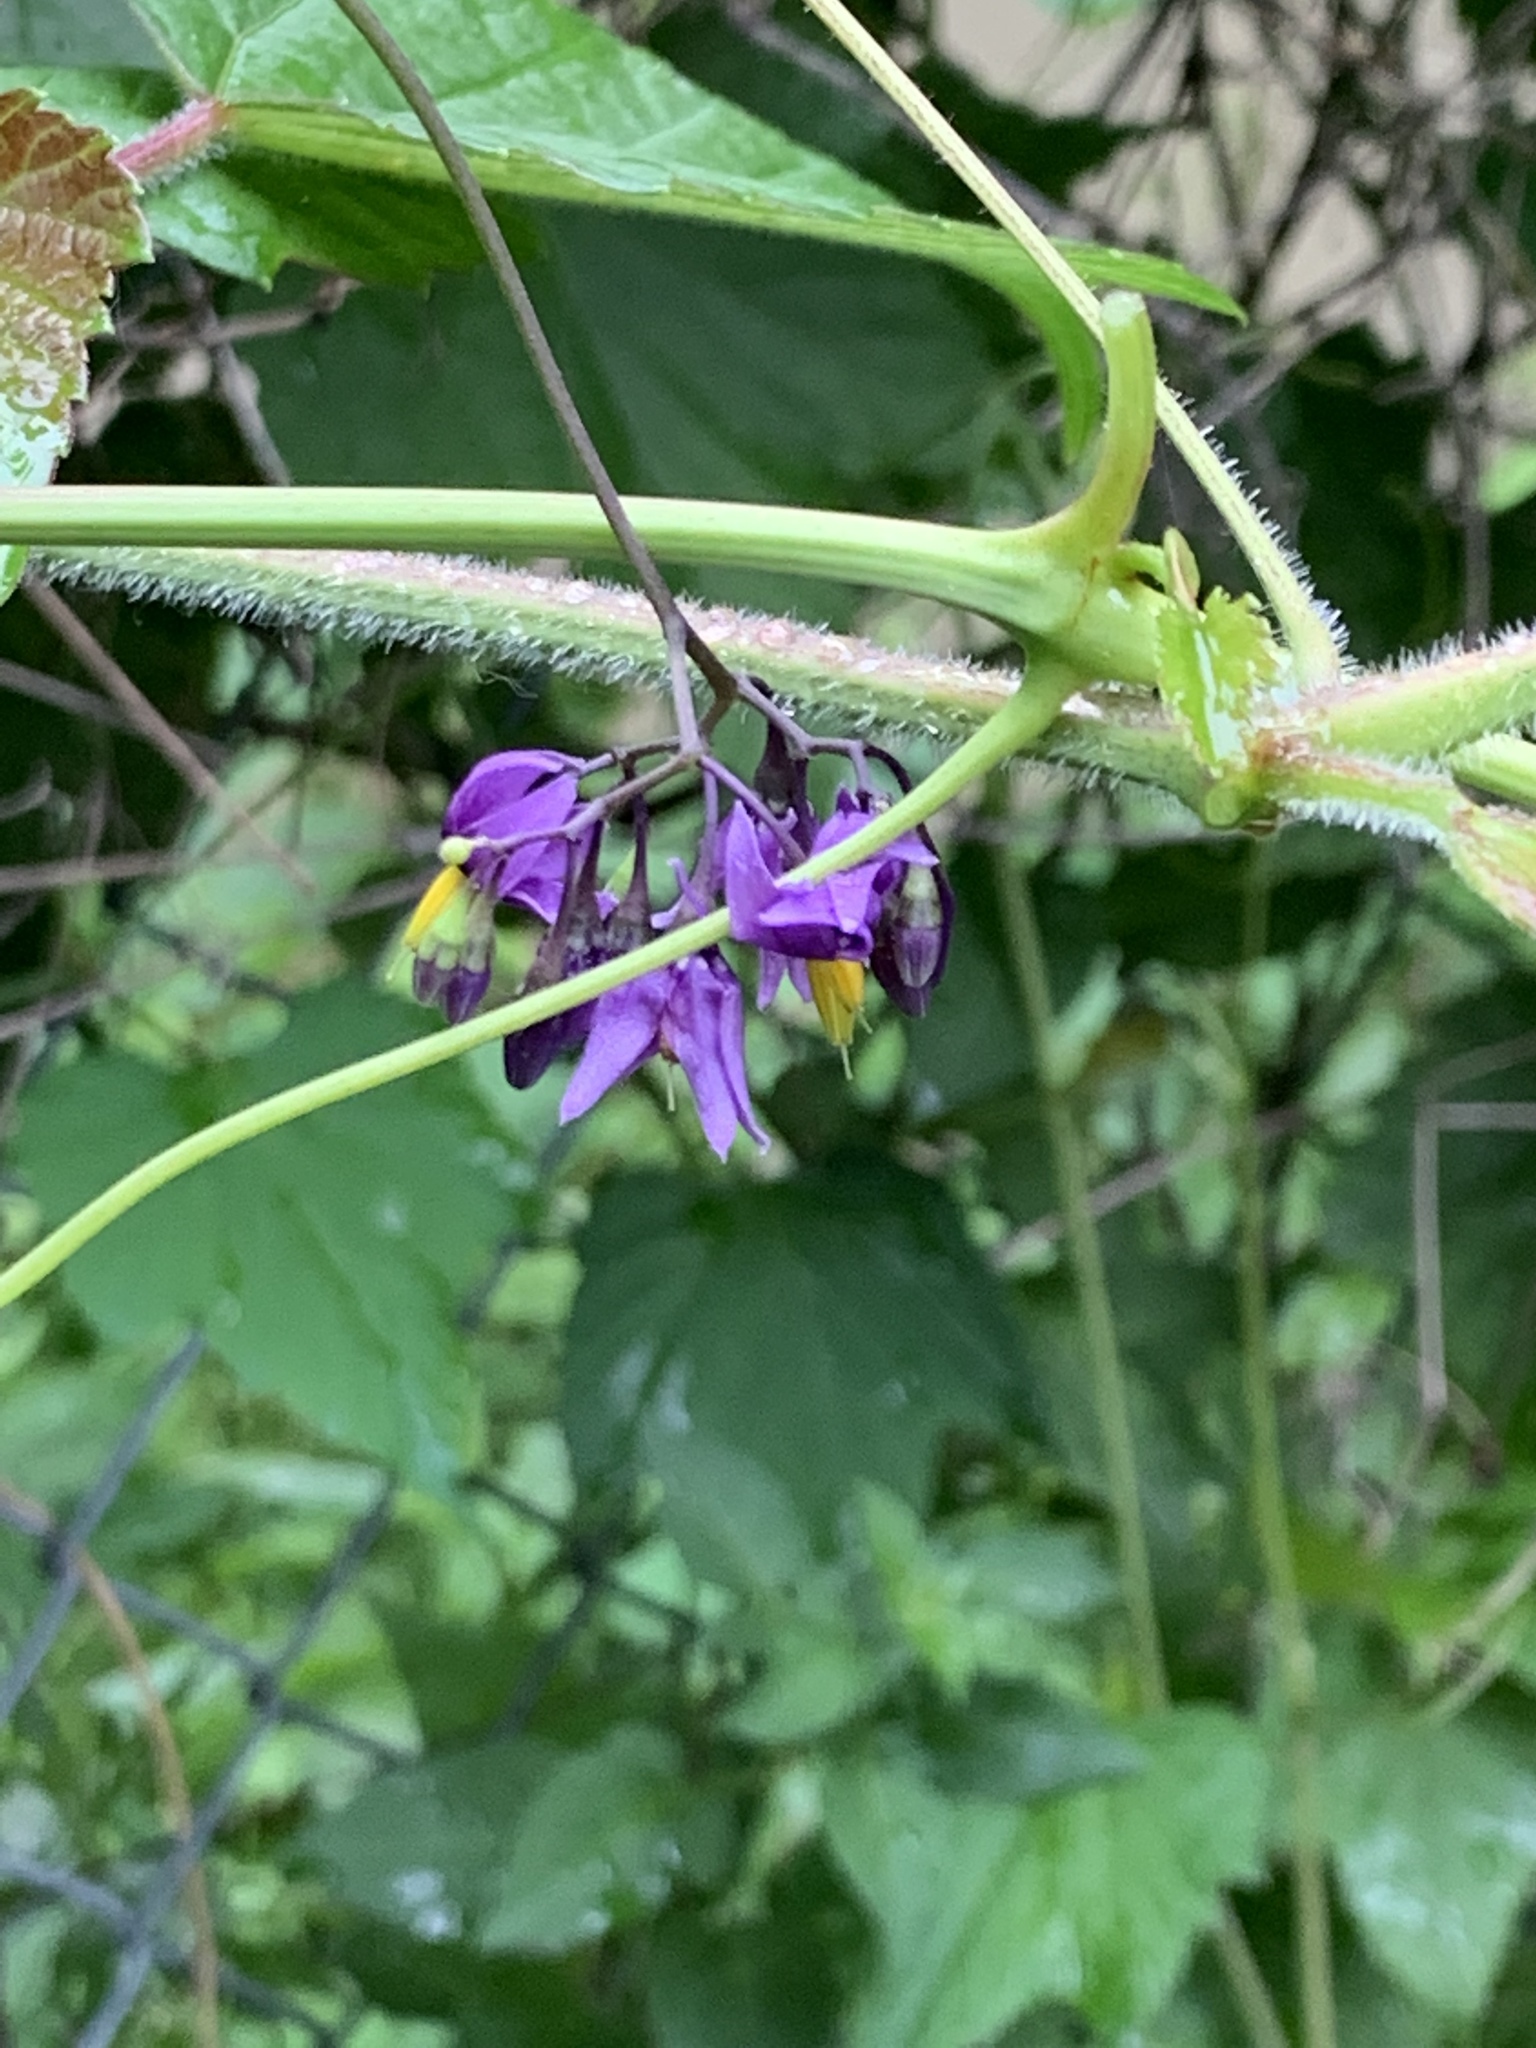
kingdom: Plantae
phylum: Tracheophyta
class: Magnoliopsida
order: Solanales
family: Solanaceae
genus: Solanum
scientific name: Solanum dulcamara
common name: Climbing nightshade
